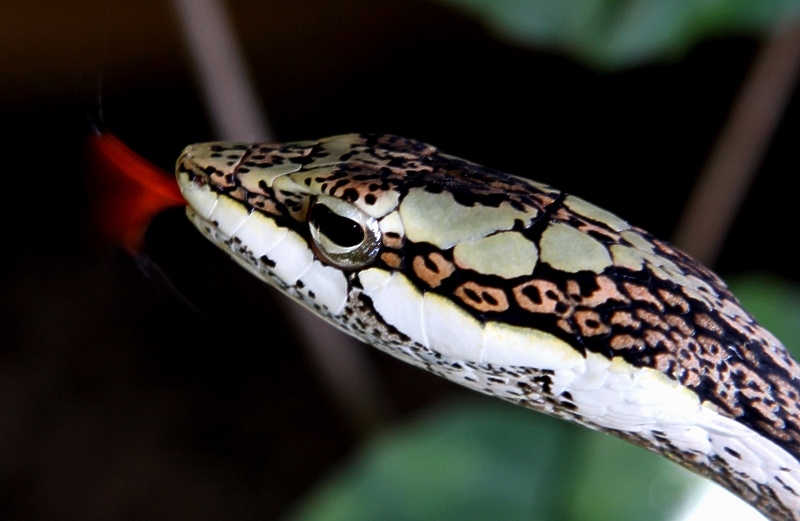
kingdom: Animalia
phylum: Chordata
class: Squamata
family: Colubridae
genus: Thelotornis
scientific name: Thelotornis capensis
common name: Savanna vine snake
